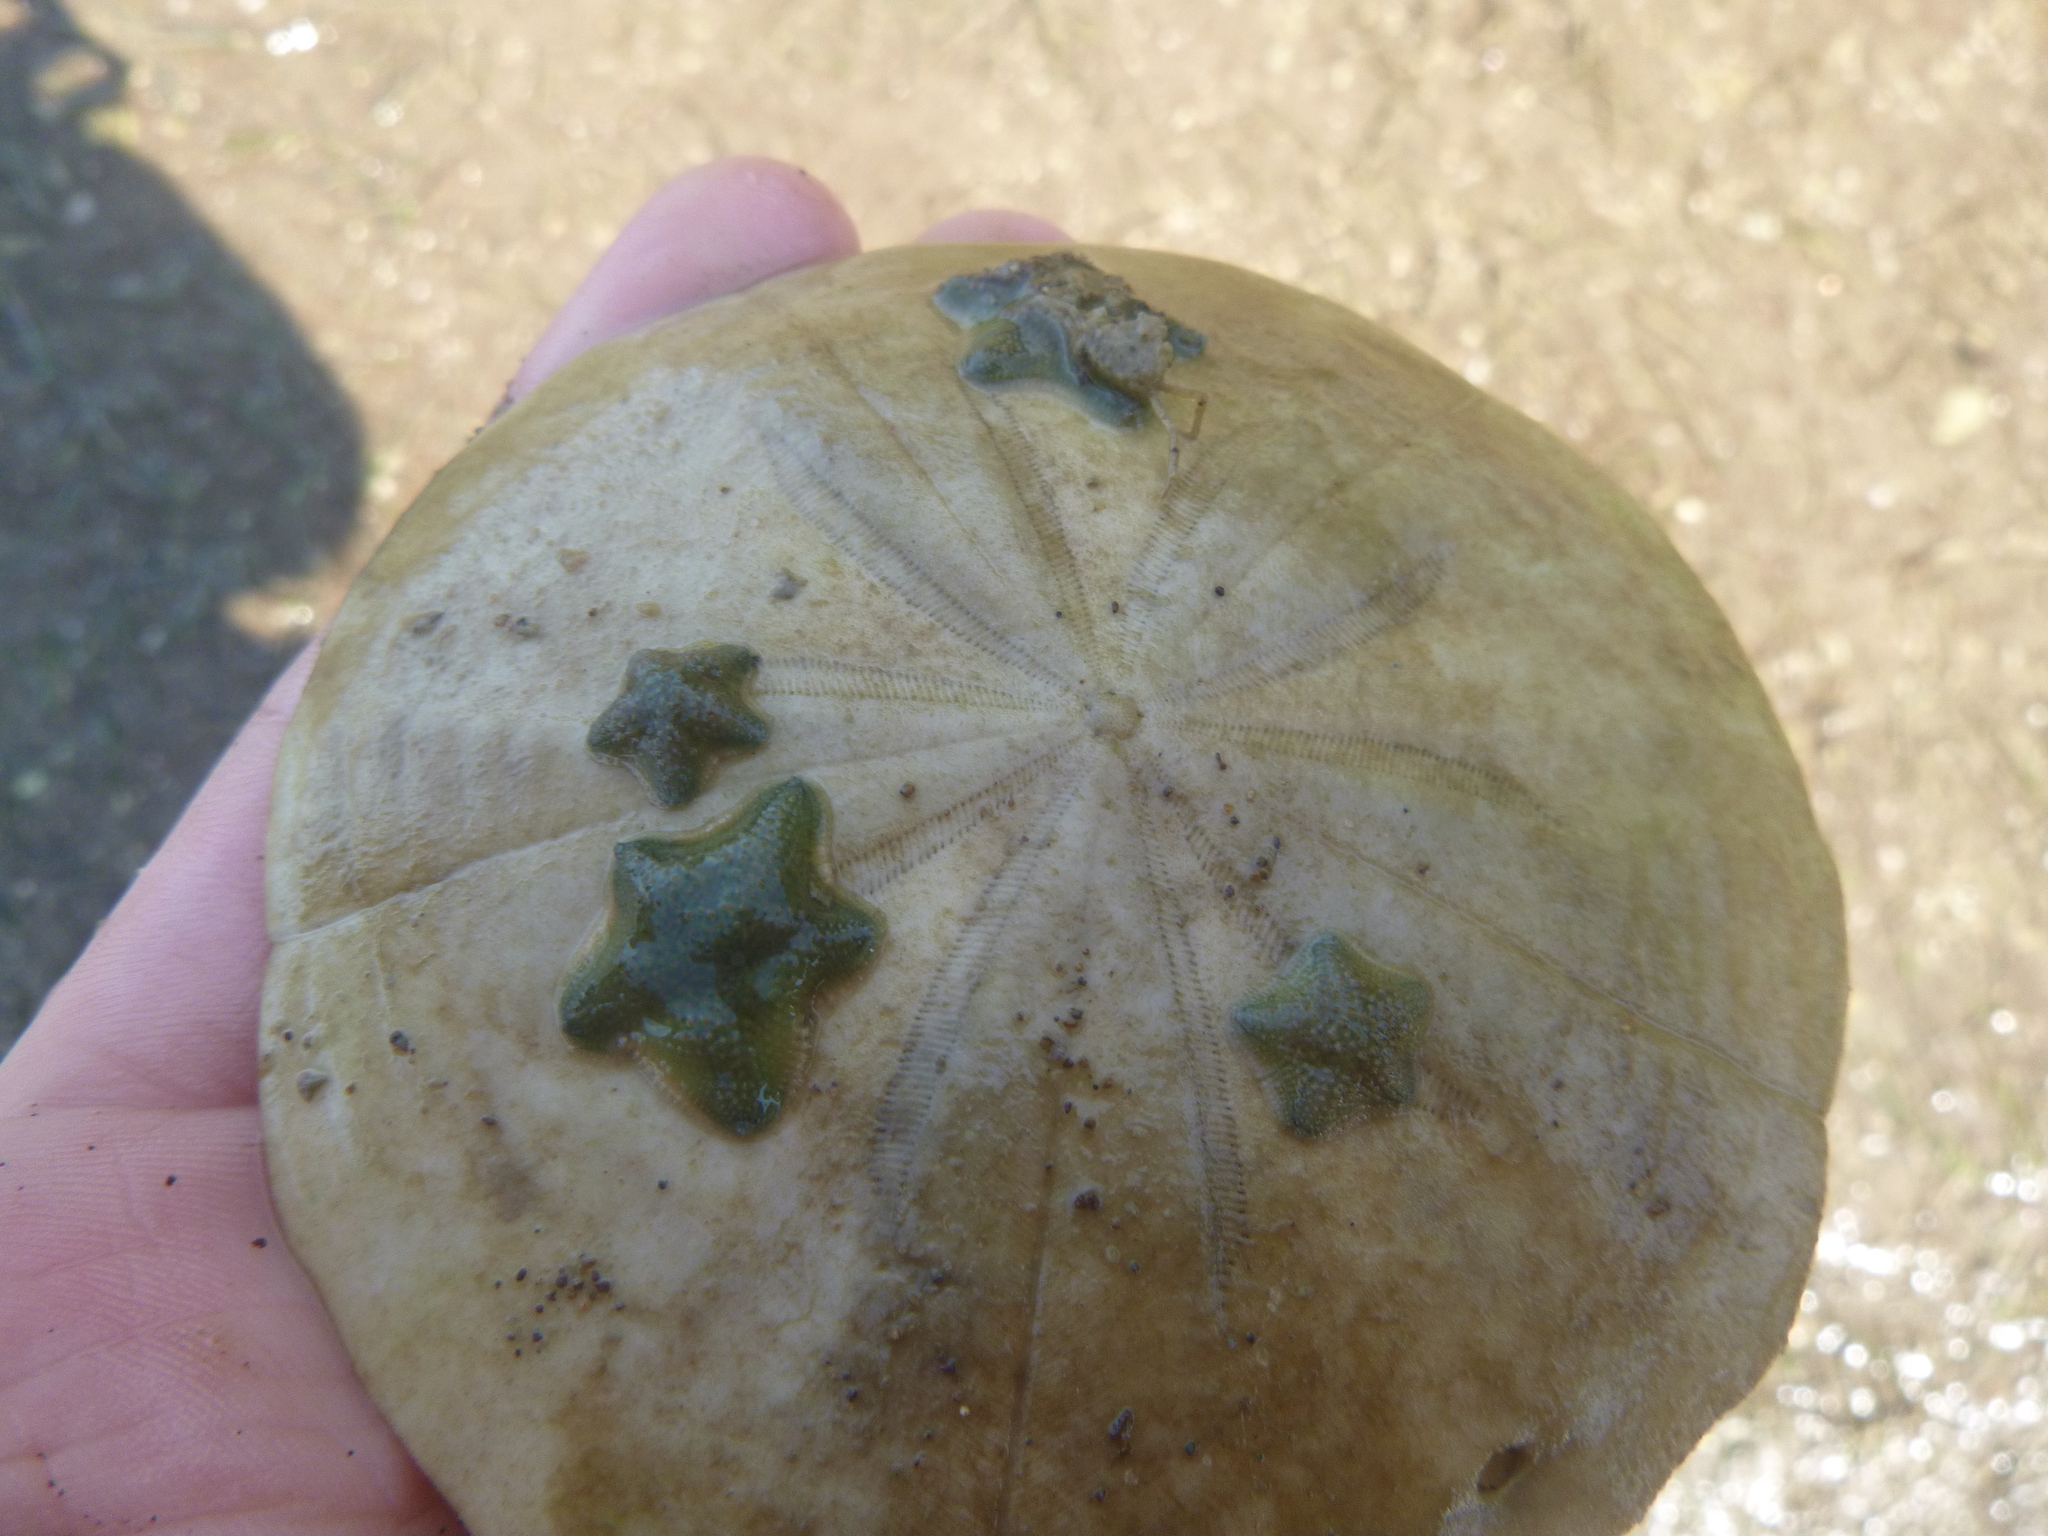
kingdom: Animalia
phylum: Echinodermata
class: Asteroidea
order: Valvatida
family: Asterinidae
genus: Patiriella
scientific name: Patiriella regularis
